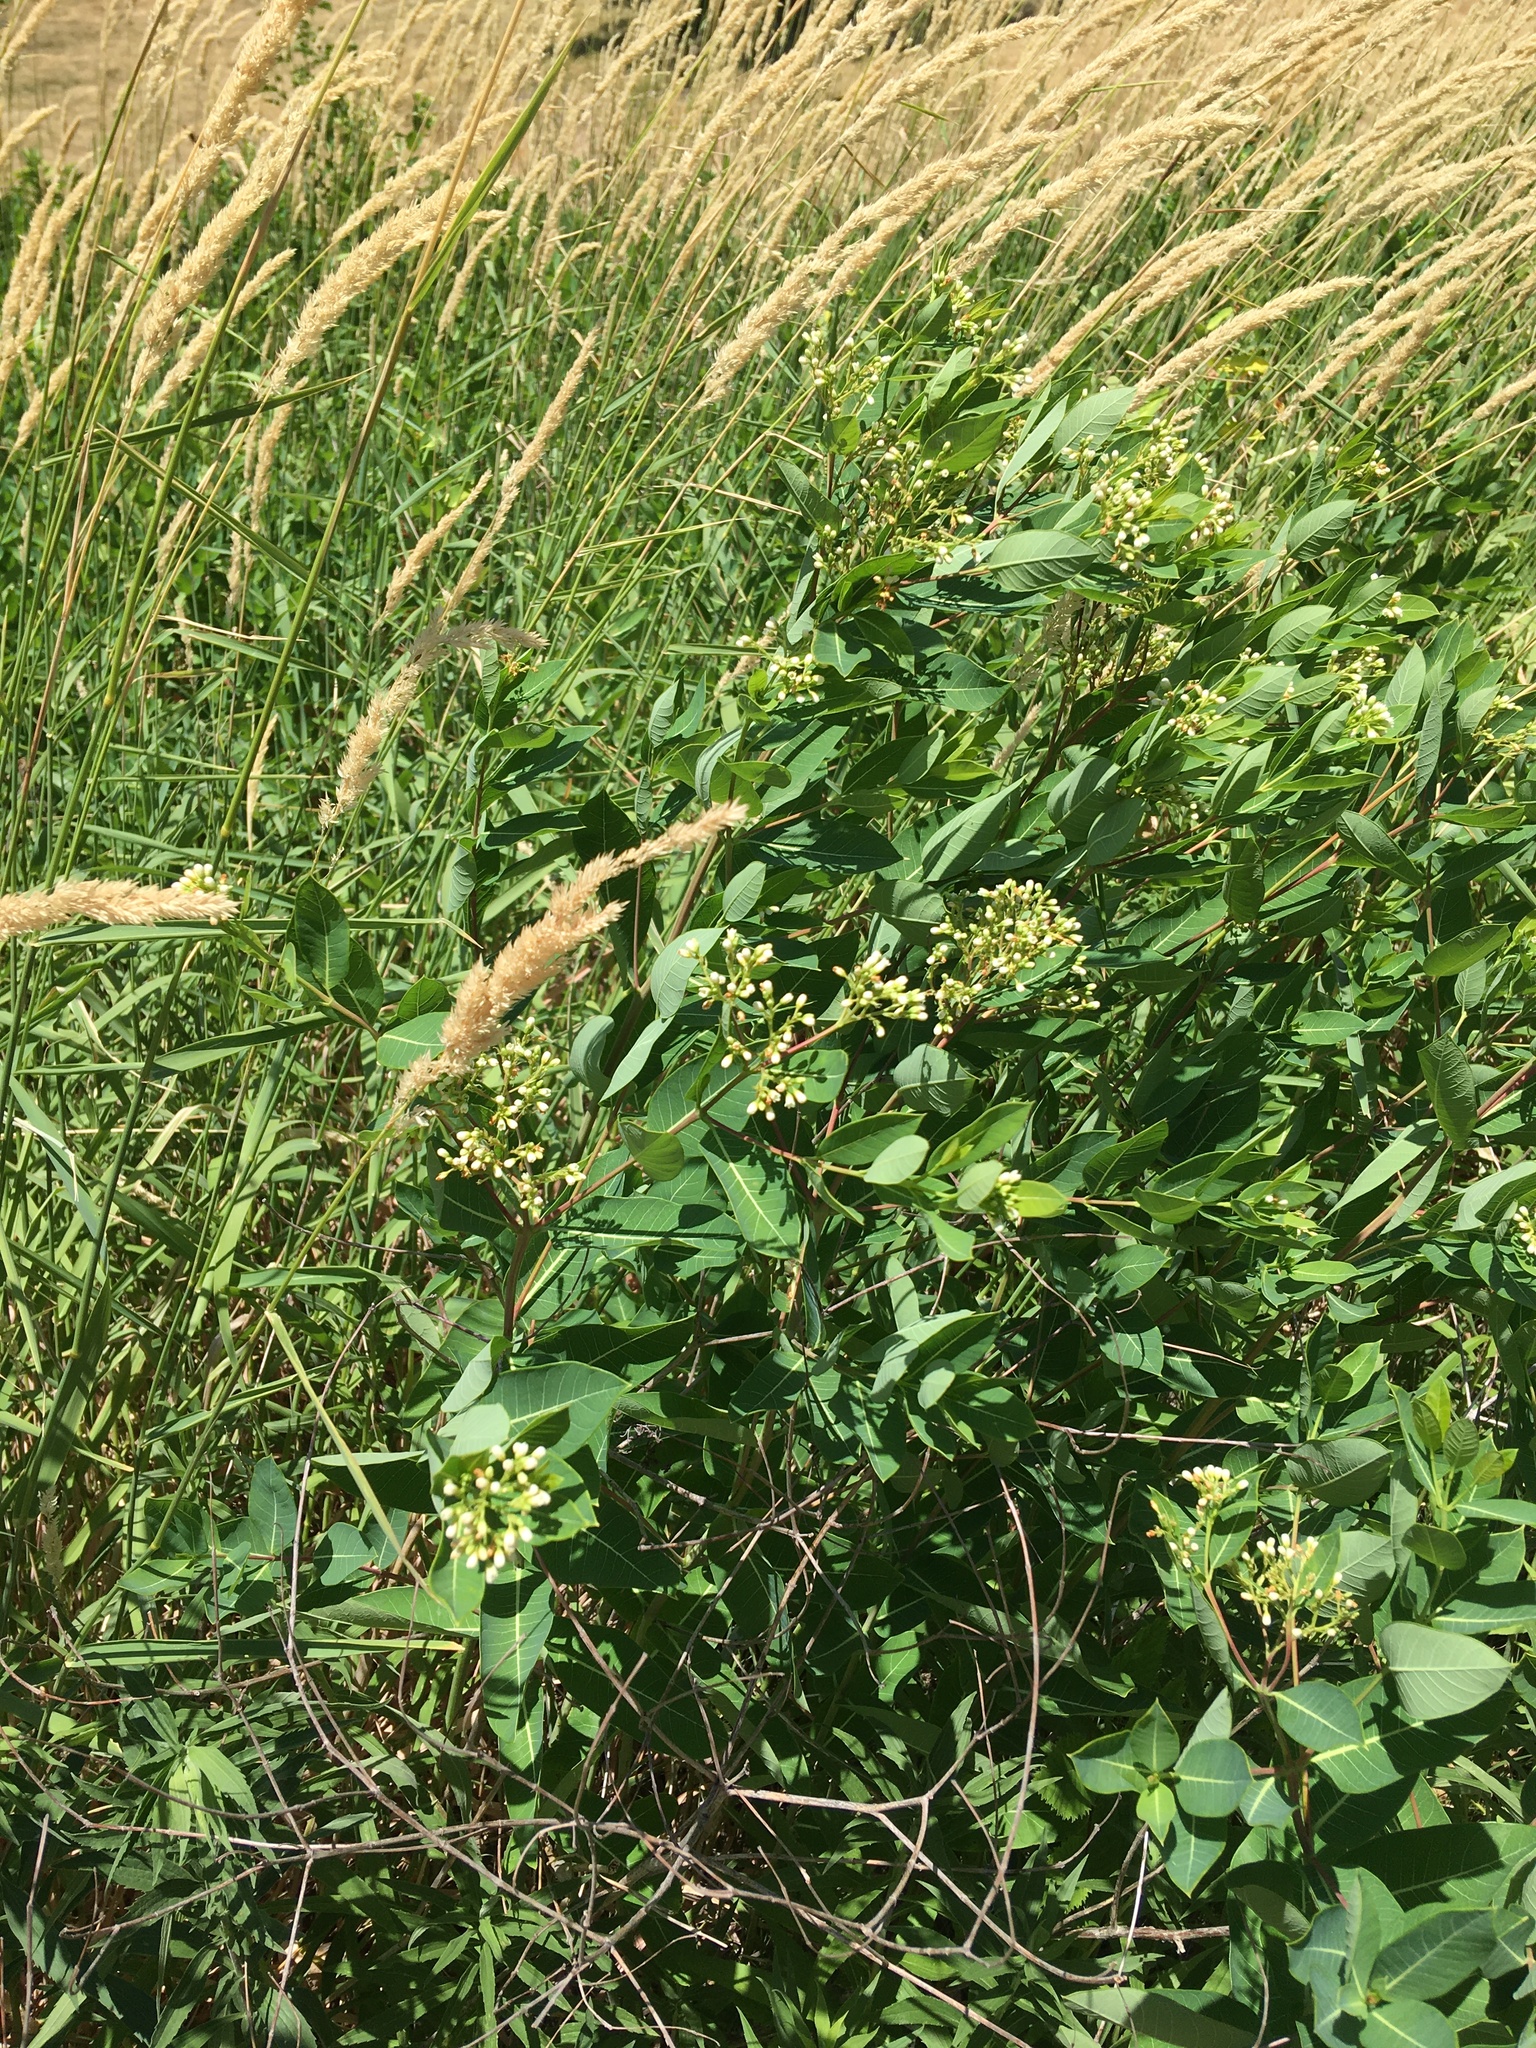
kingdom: Plantae
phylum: Tracheophyta
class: Magnoliopsida
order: Gentianales
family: Apocynaceae
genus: Apocynum
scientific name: Apocynum cannabinum
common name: Hemp dogbane
